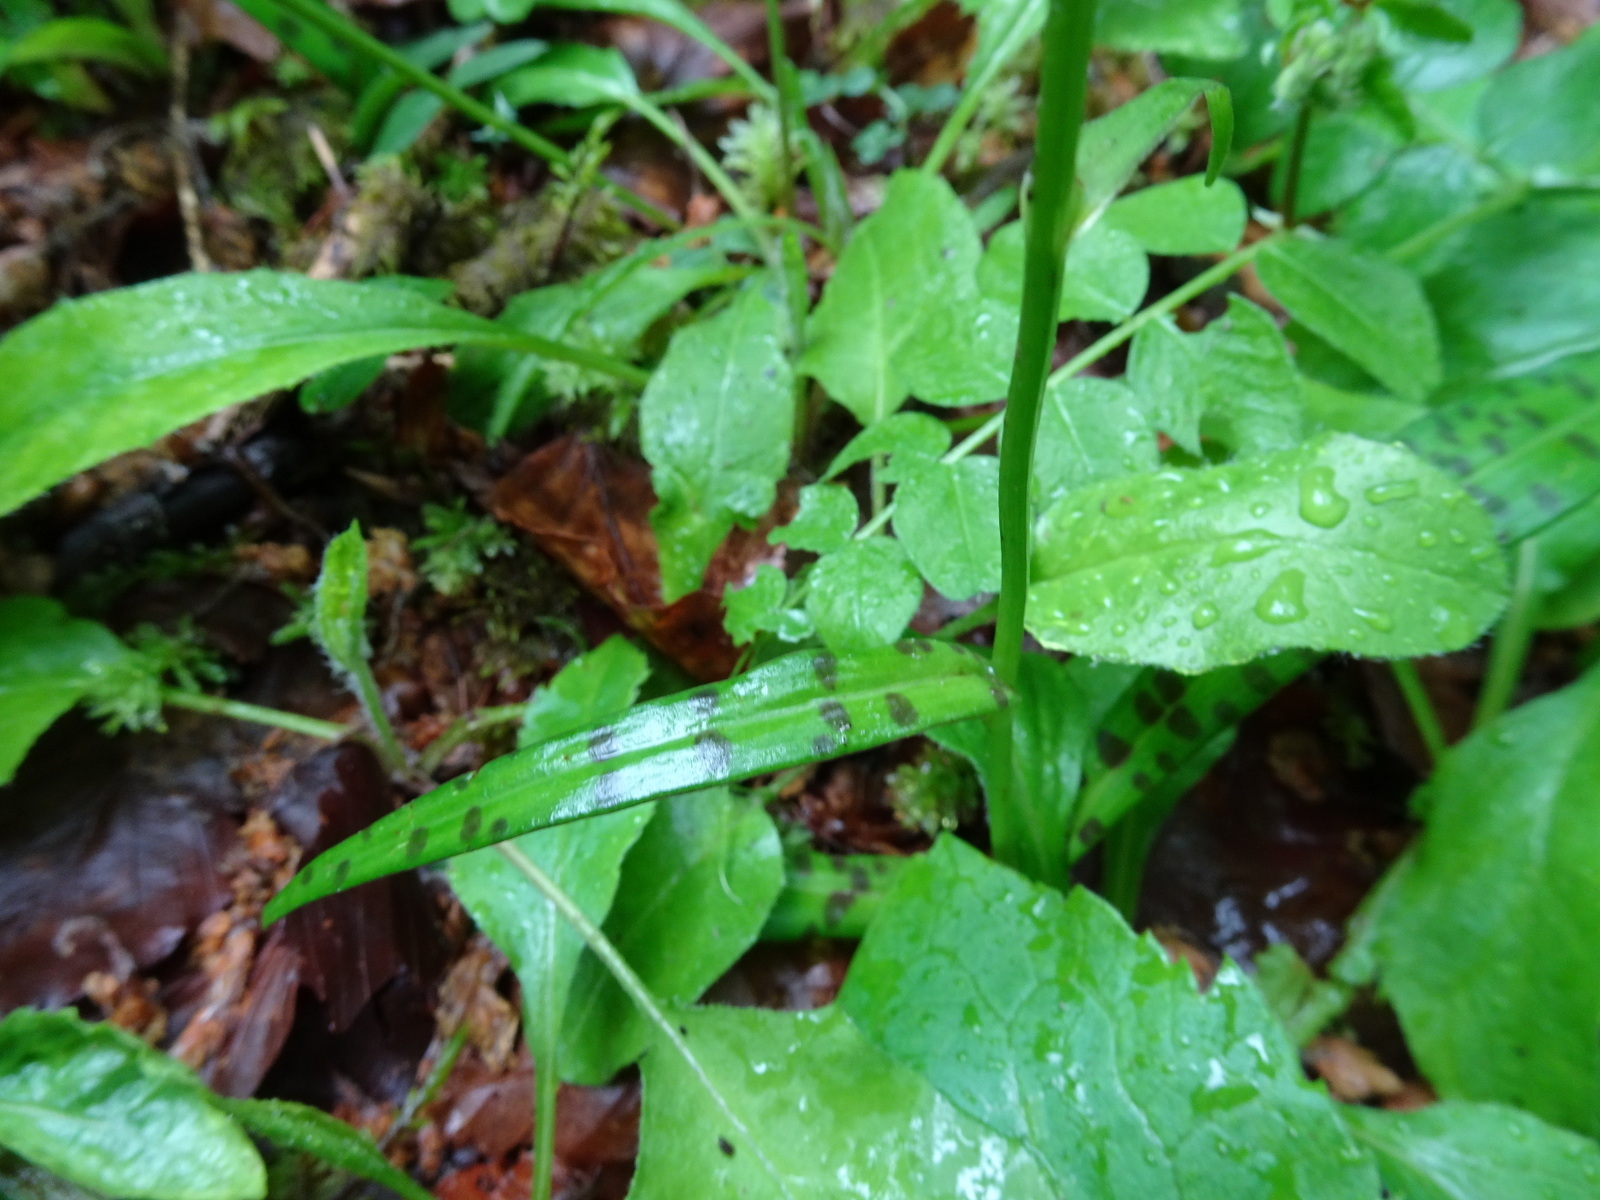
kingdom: Plantae
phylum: Tracheophyta
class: Liliopsida
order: Asparagales
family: Orchidaceae
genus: Dactylorhiza
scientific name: Dactylorhiza maculata
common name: Heath spotted-orchid
